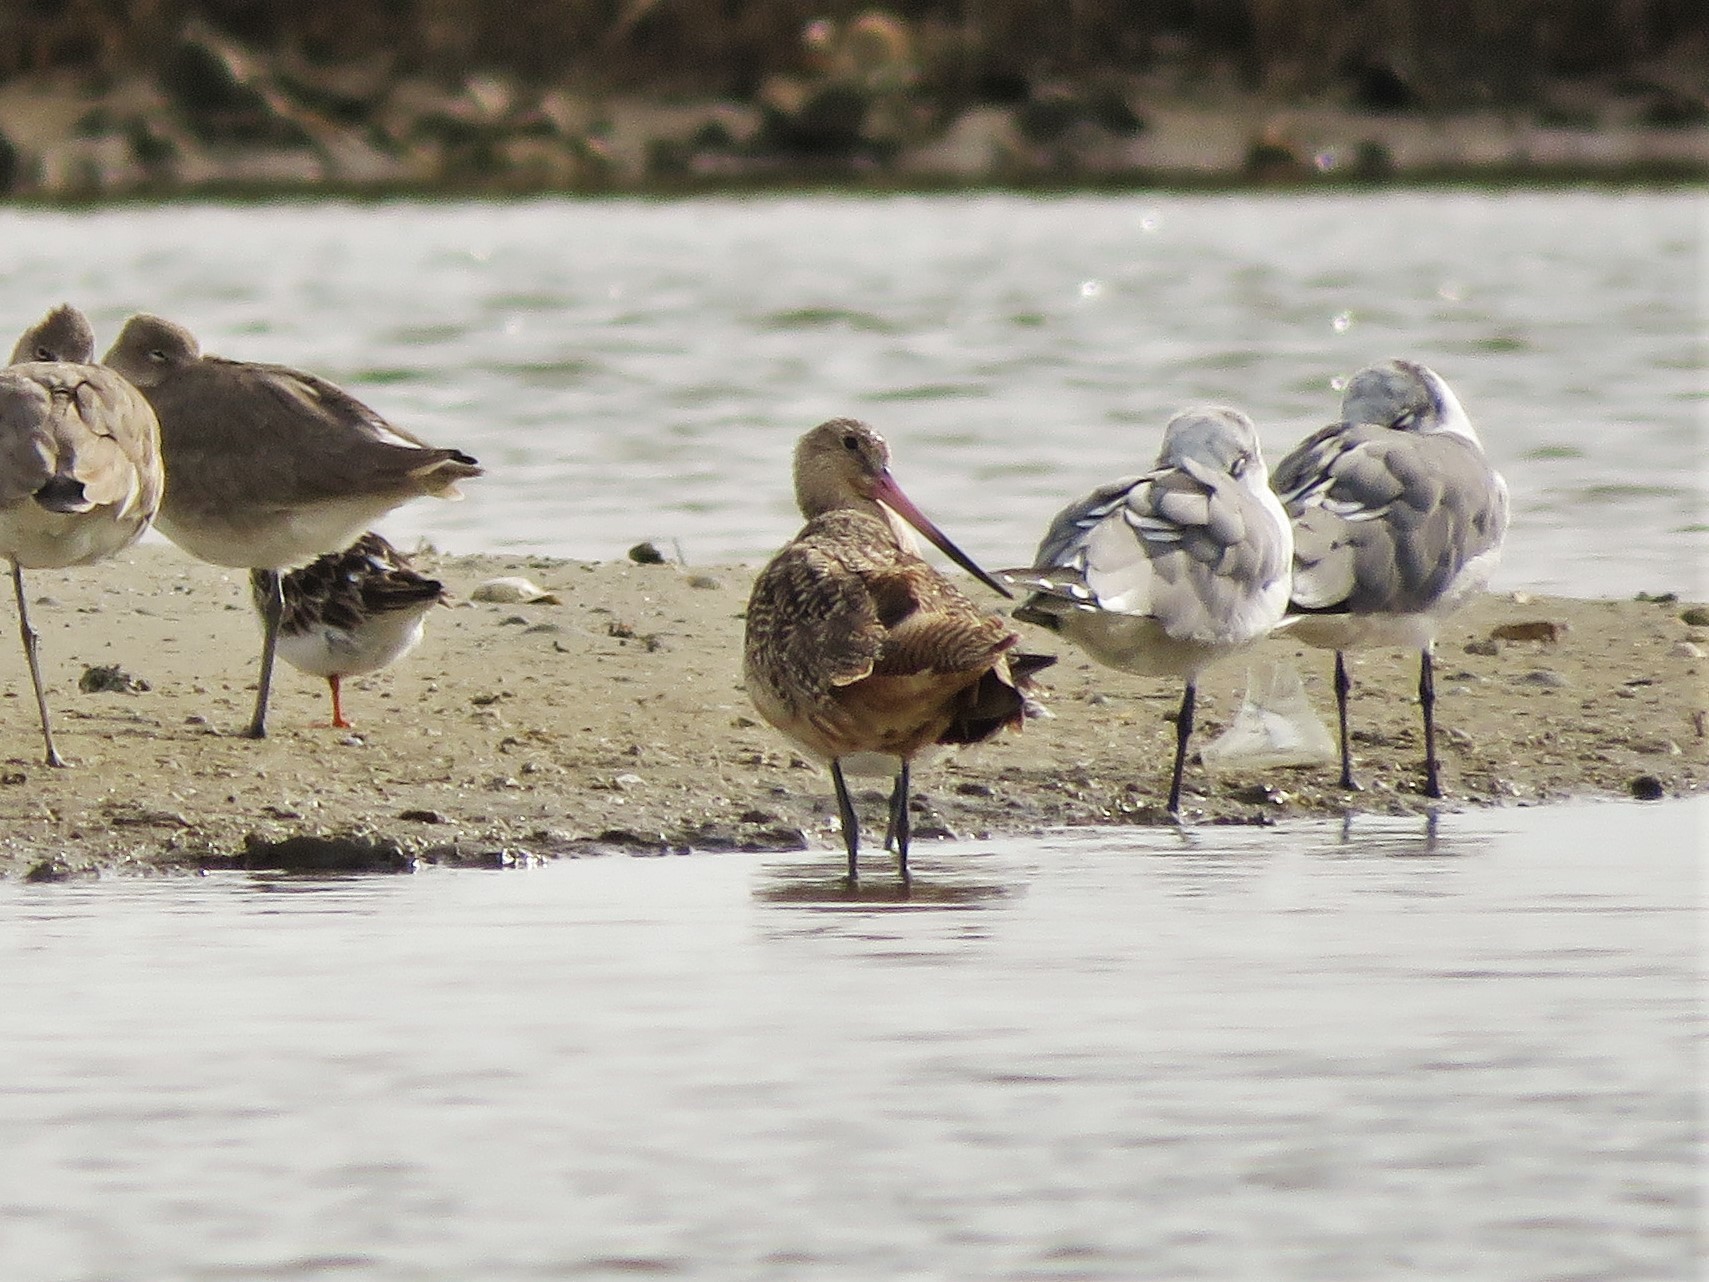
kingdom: Animalia
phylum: Chordata
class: Aves
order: Charadriiformes
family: Scolopacidae
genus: Limosa
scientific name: Limosa fedoa
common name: Marbled godwit
